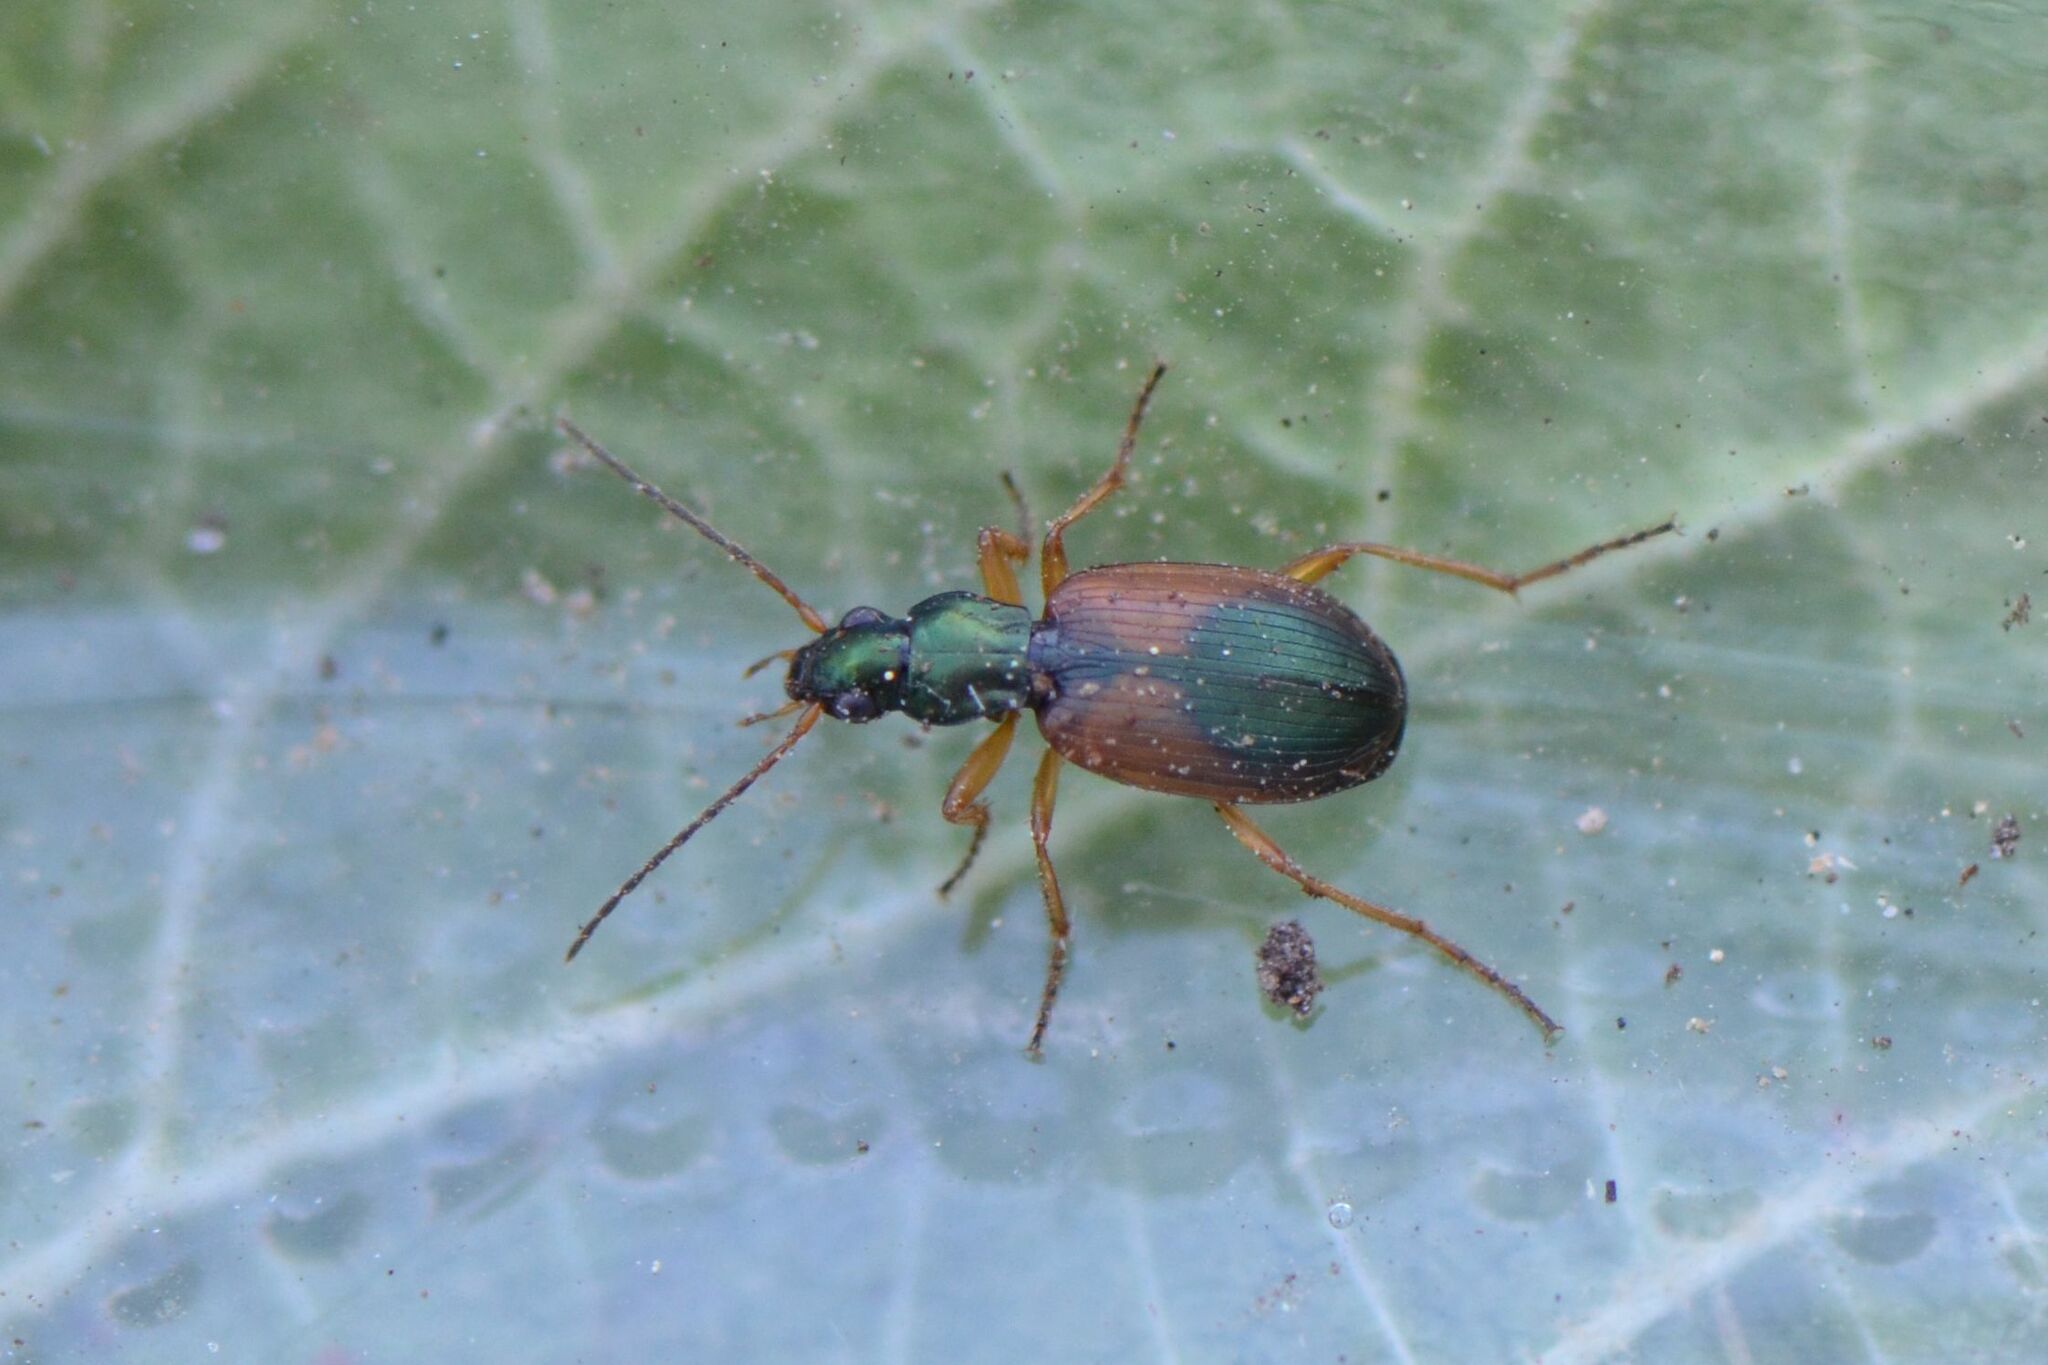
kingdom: Animalia
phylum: Arthropoda
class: Insecta
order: Coleoptera
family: Carabidae
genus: Anchomenus
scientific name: Anchomenus dorsalis
